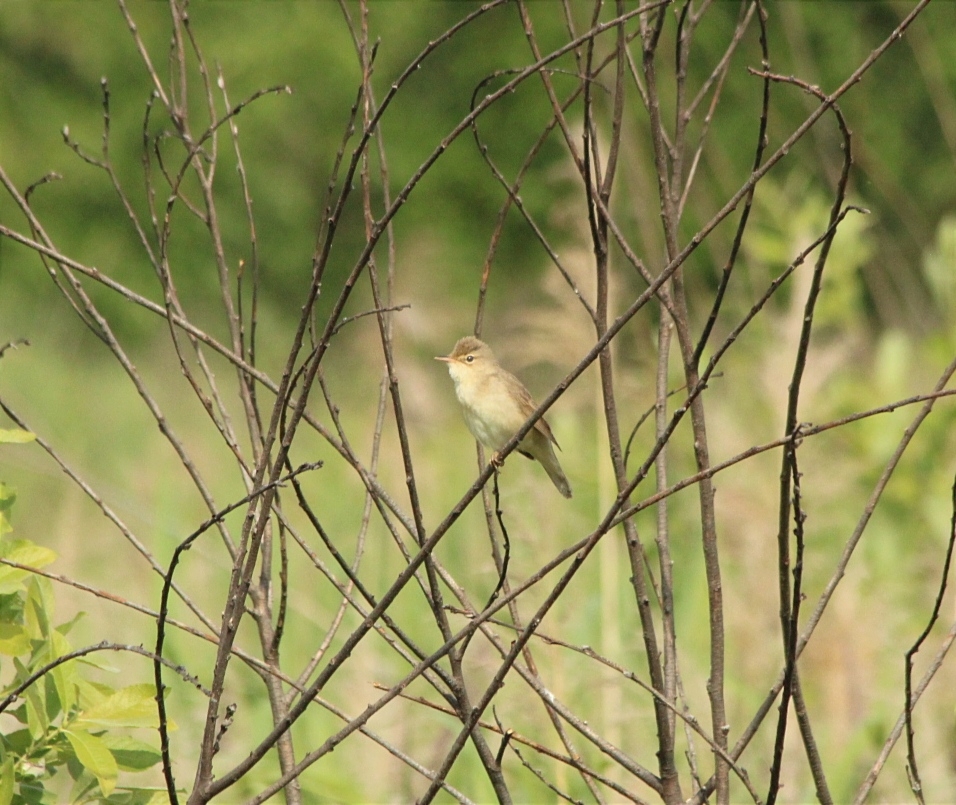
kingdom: Animalia
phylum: Chordata
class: Aves
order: Passeriformes
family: Acrocephalidae
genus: Acrocephalus
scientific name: Acrocephalus palustris
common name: Marsh warbler
